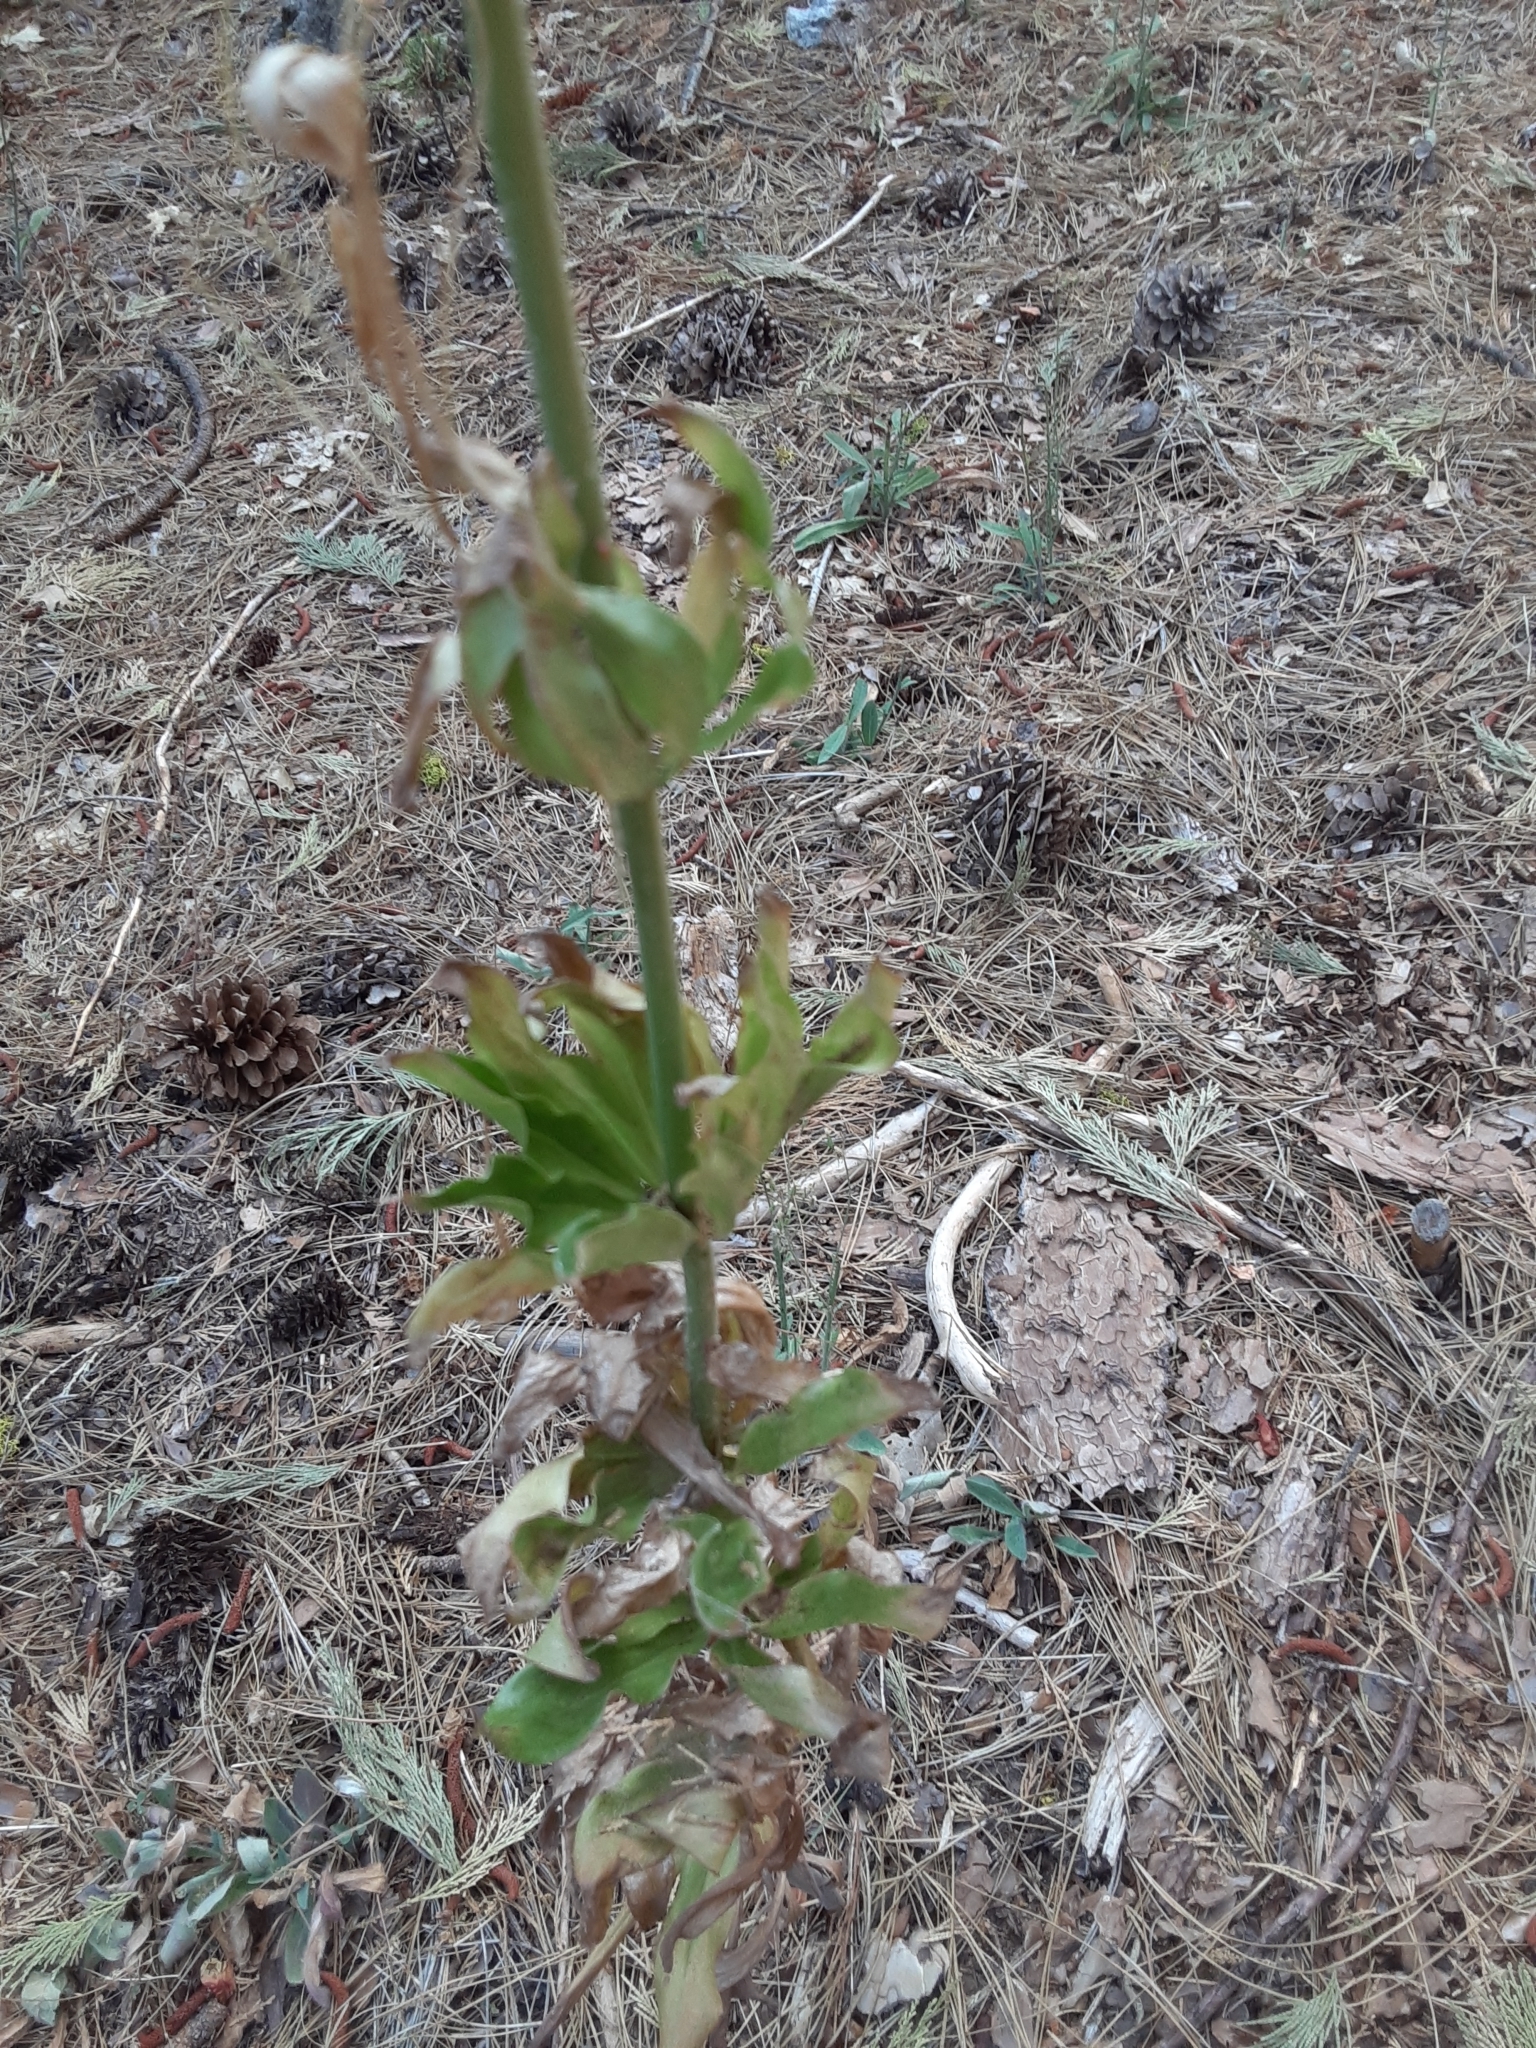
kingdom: Plantae
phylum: Tracheophyta
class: Liliopsida
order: Liliales
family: Liliaceae
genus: Lilium
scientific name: Lilium washingtonianum
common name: Washington lily
